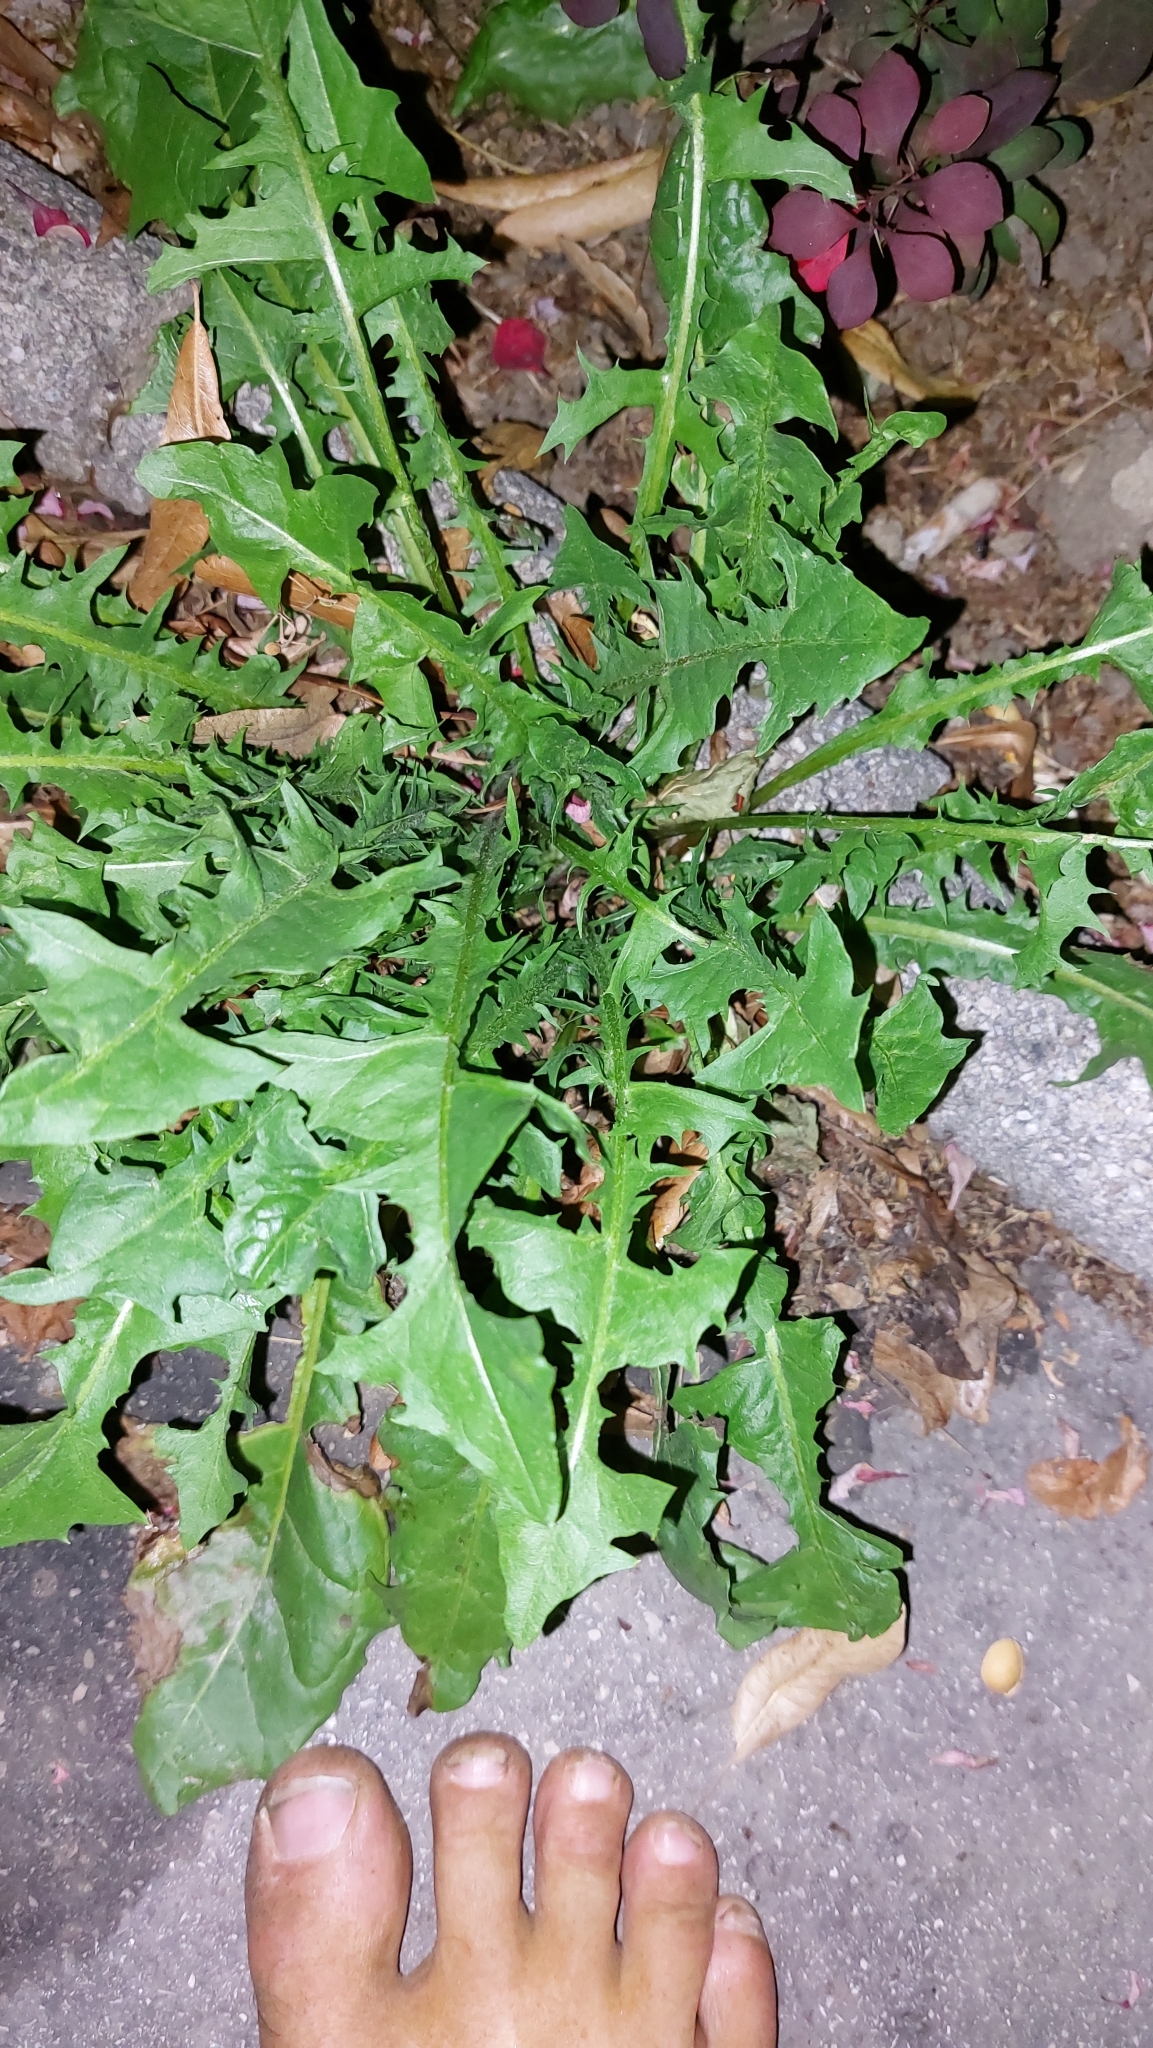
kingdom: Plantae
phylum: Tracheophyta
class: Magnoliopsida
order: Asterales
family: Asteraceae
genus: Taraxacum
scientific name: Taraxacum
